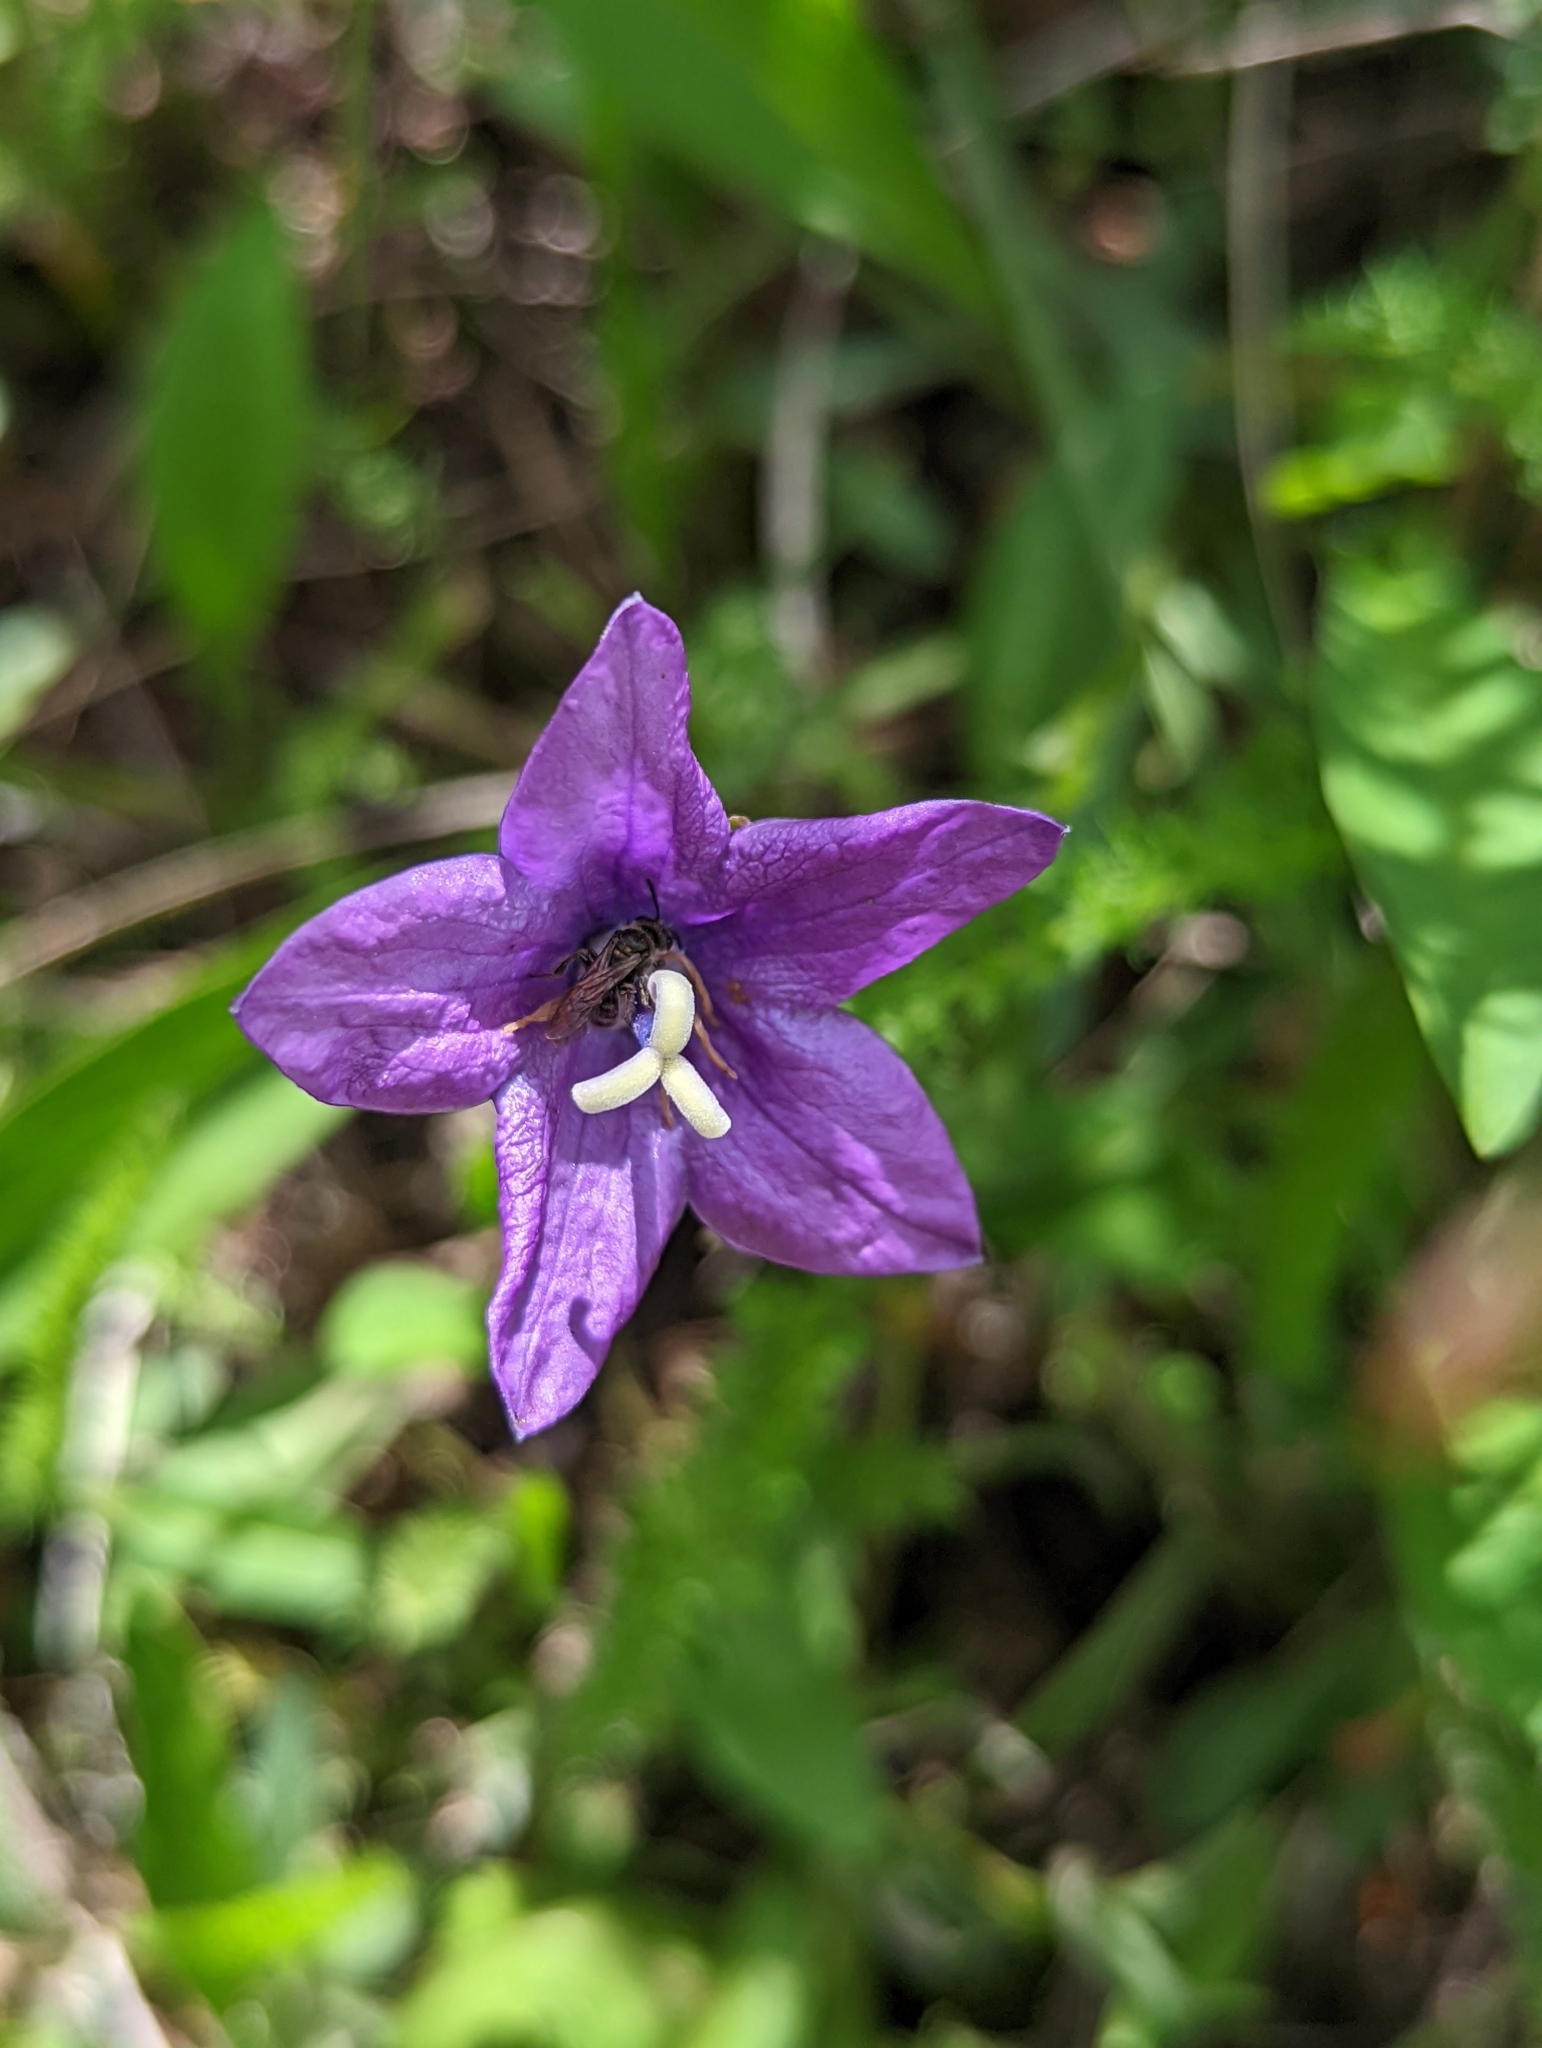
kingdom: Plantae
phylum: Tracheophyta
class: Magnoliopsida
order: Asterales
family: Campanulaceae
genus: Campanula
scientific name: Campanula parryi
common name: Rocky mountain bellflower
